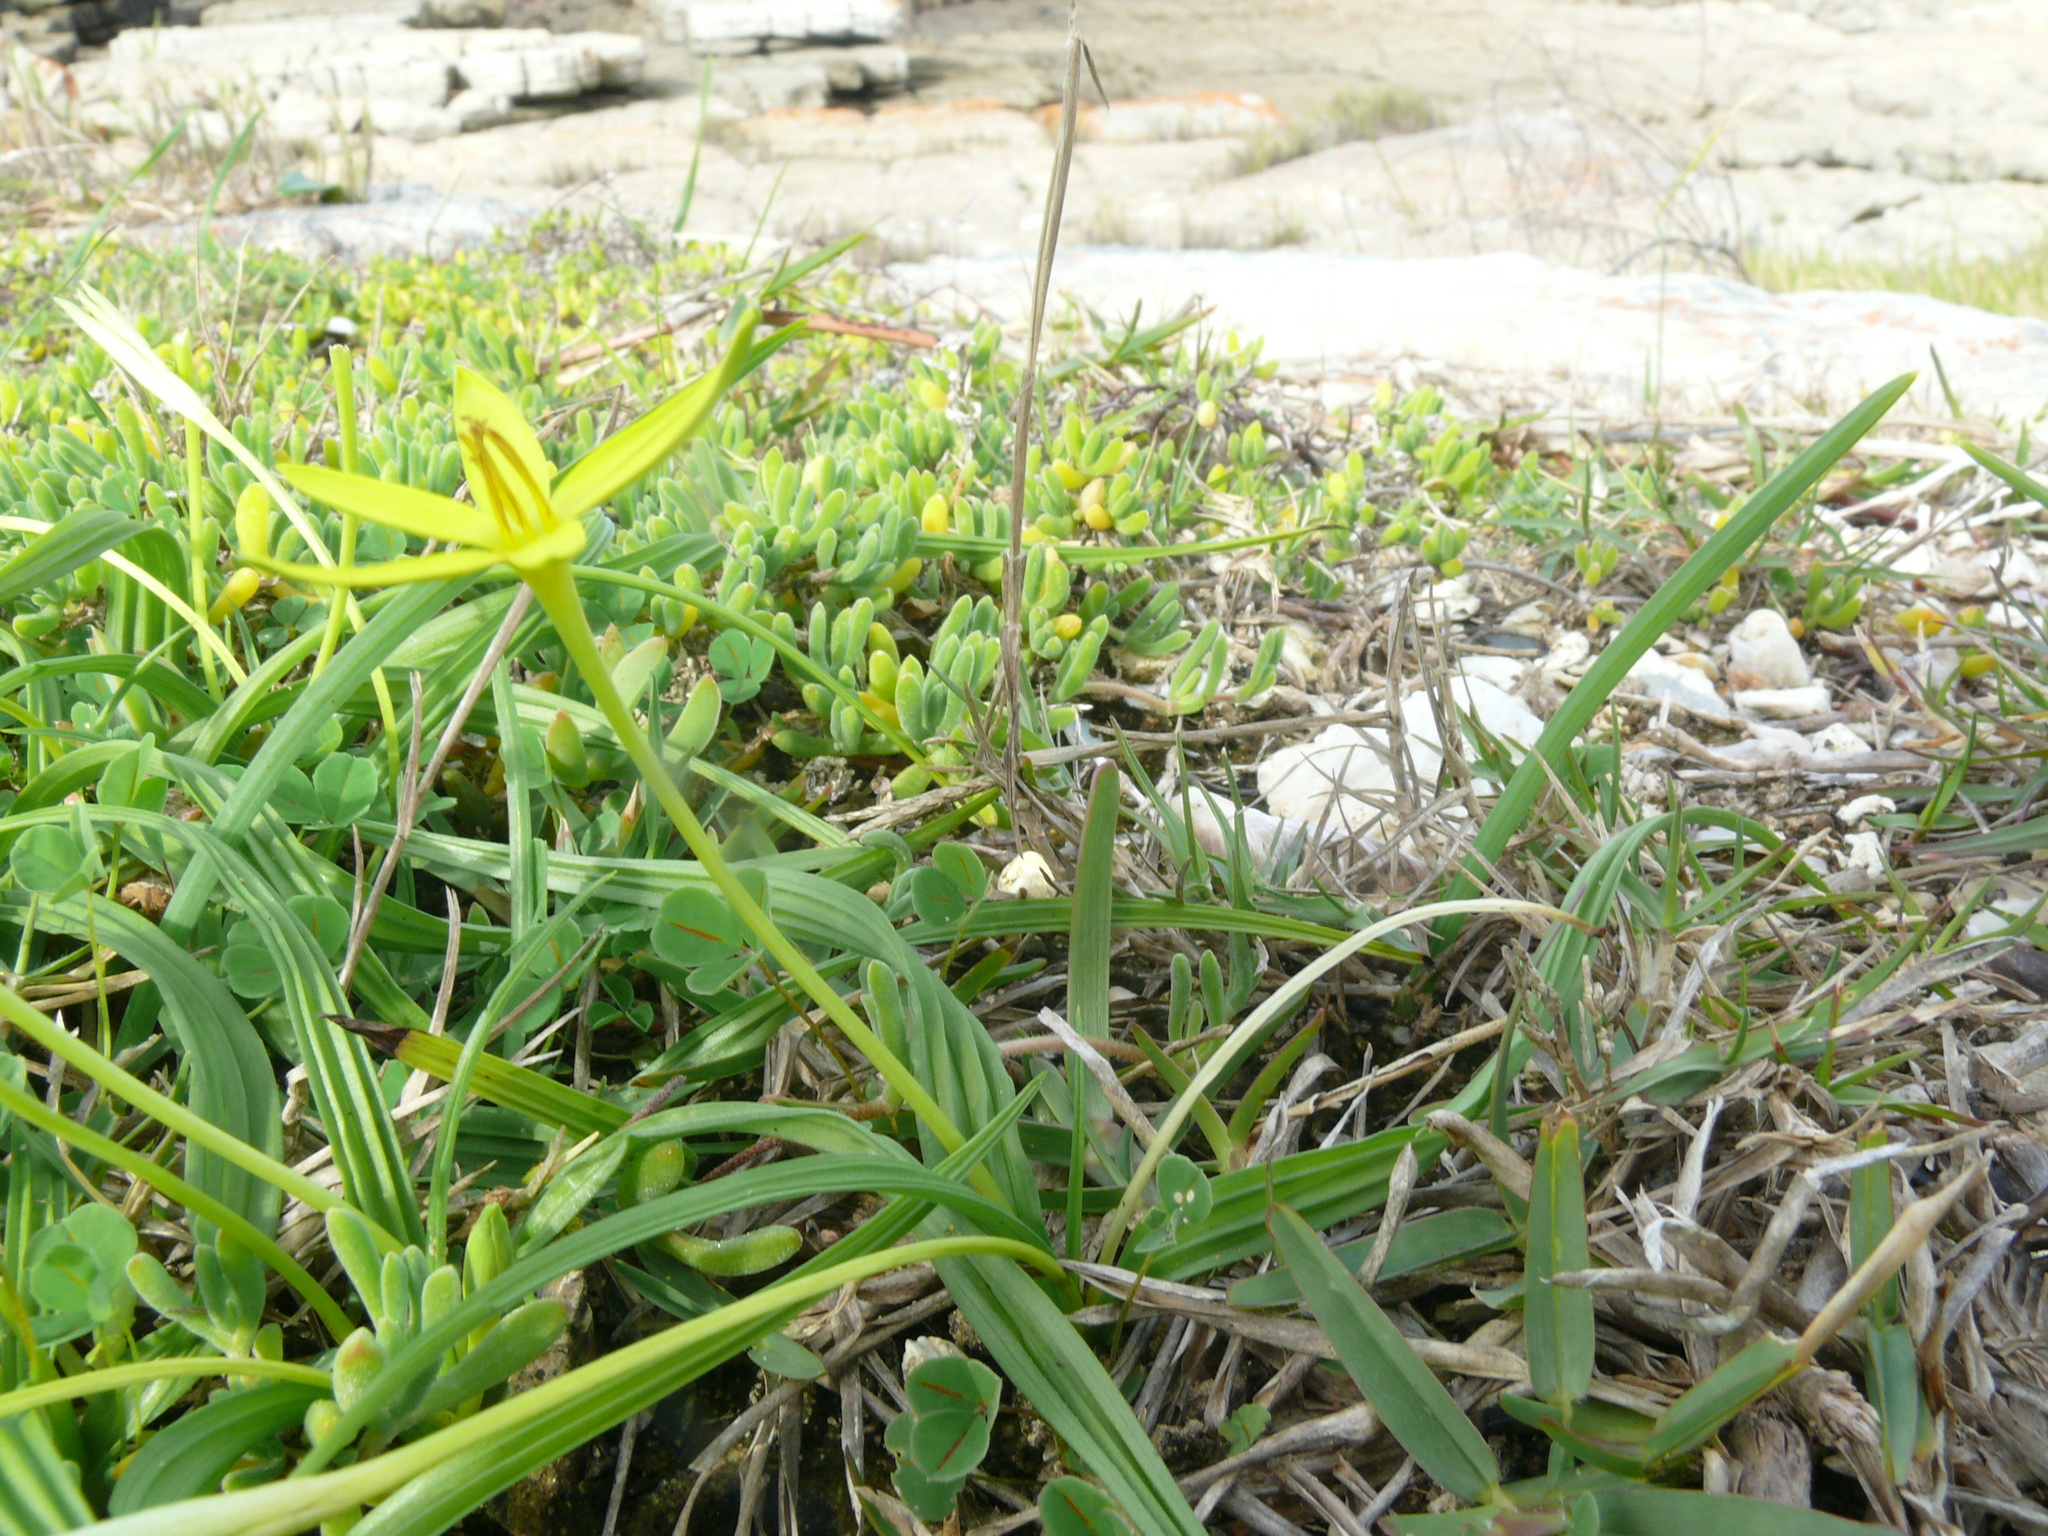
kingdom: Plantae
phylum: Tracheophyta
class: Liliopsida
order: Asparagales
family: Hypoxidaceae
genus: Empodium
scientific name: Empodium gloriosum
